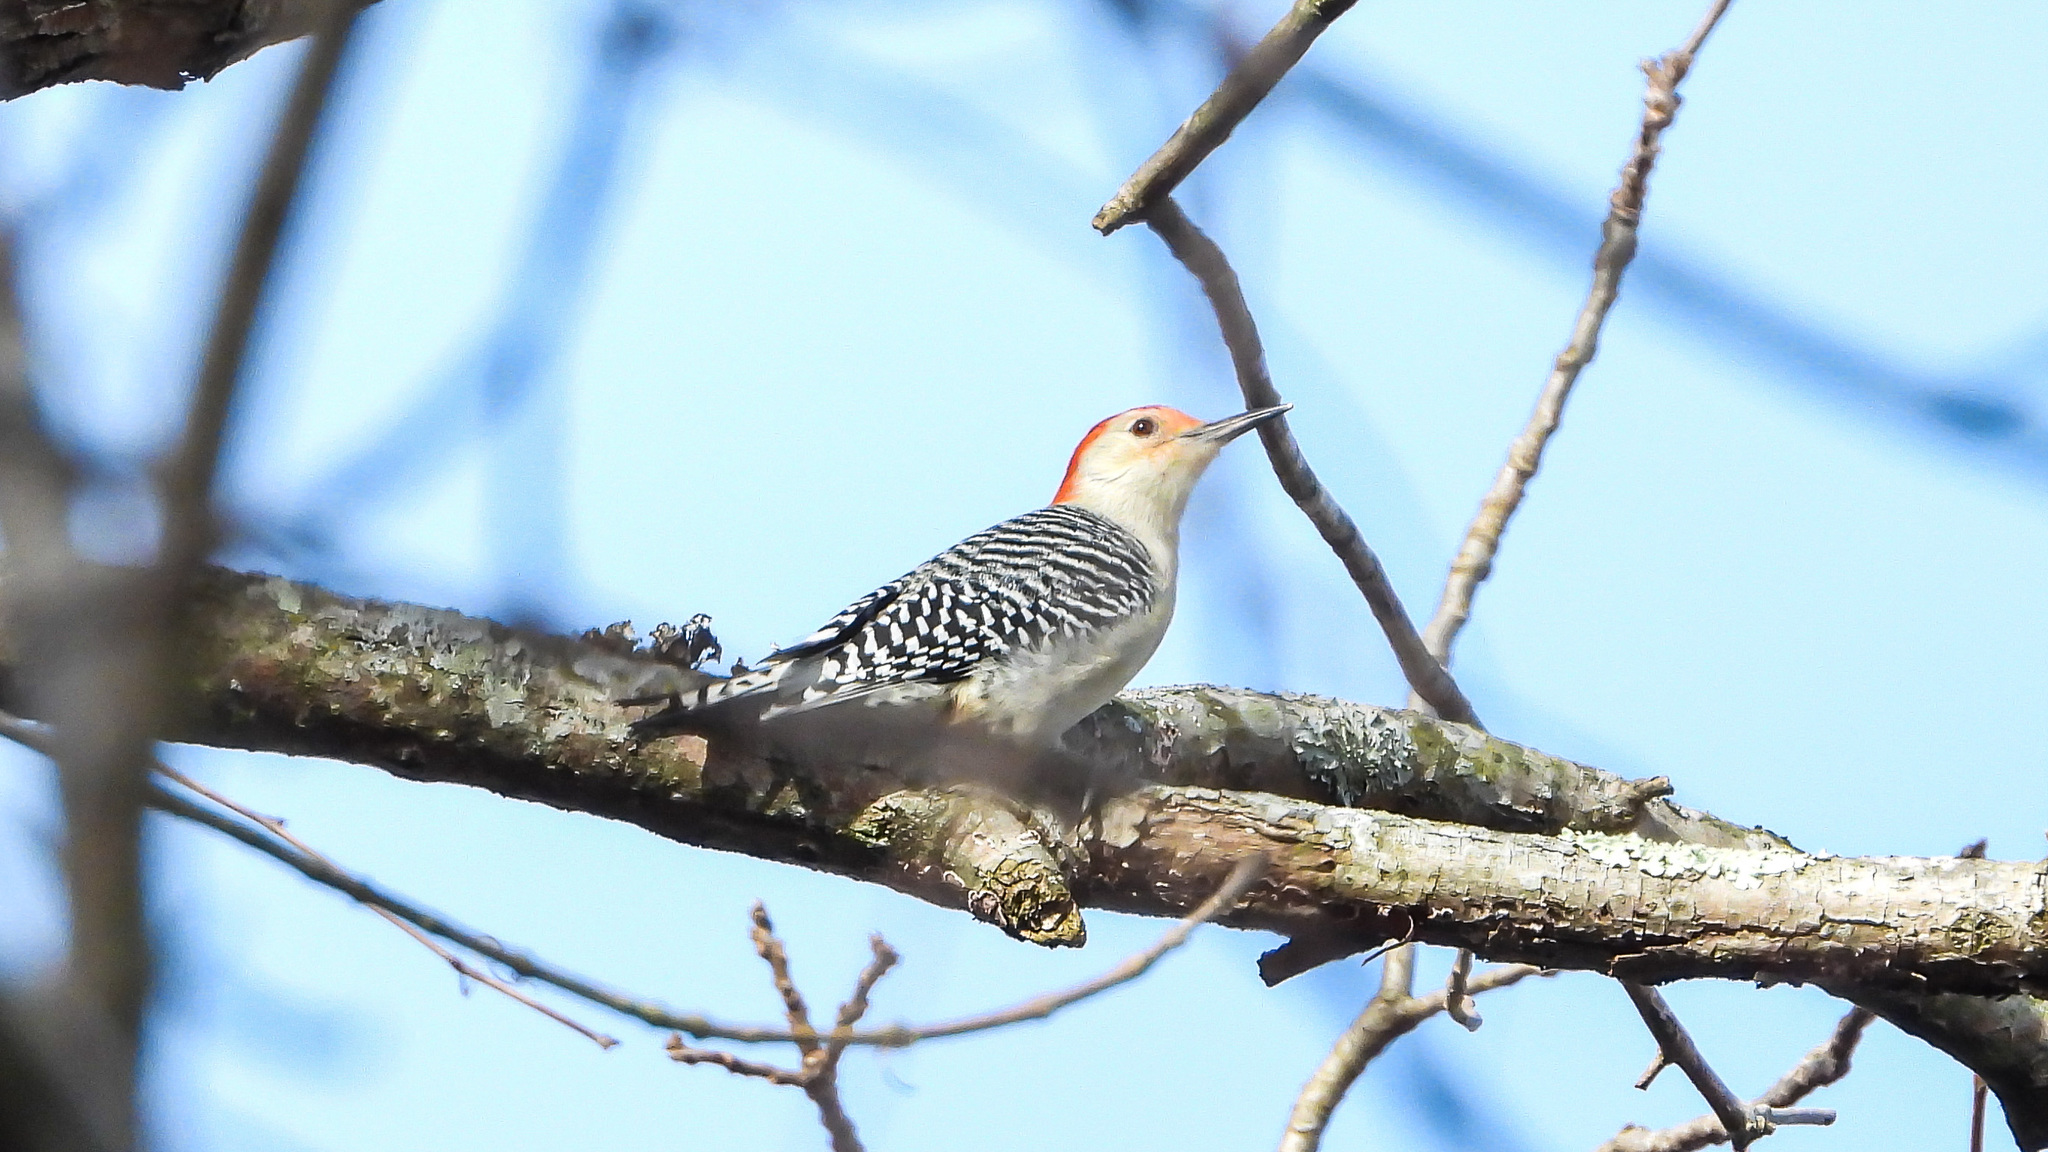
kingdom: Animalia
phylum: Chordata
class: Aves
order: Piciformes
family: Picidae
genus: Melanerpes
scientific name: Melanerpes carolinus
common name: Red-bellied woodpecker
